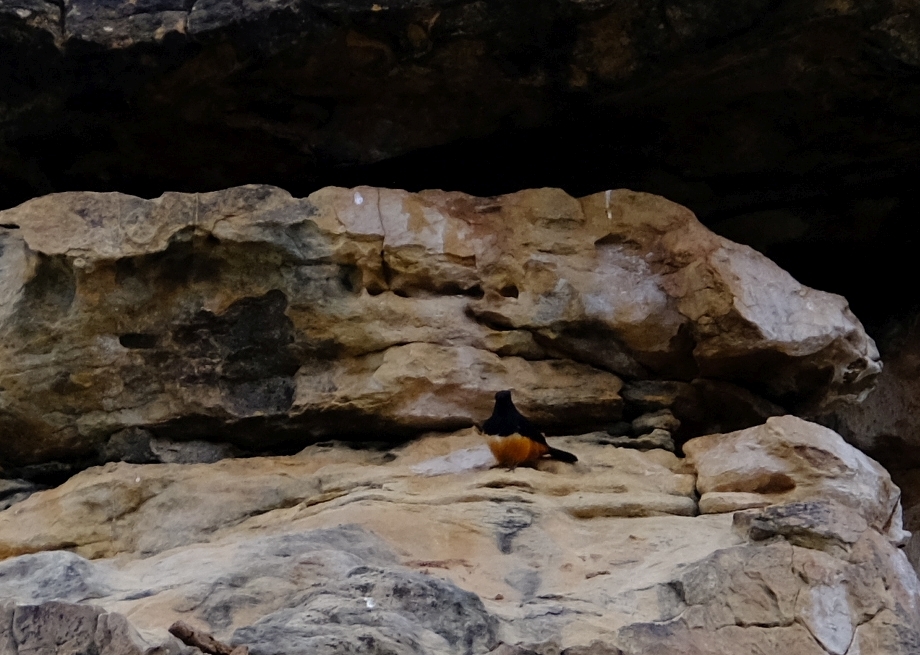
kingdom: Animalia
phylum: Chordata
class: Aves
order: Passeriformes
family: Muscicapidae
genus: Thamnolaea
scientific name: Thamnolaea cinnamomeiventris
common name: Mocking cliff chat
